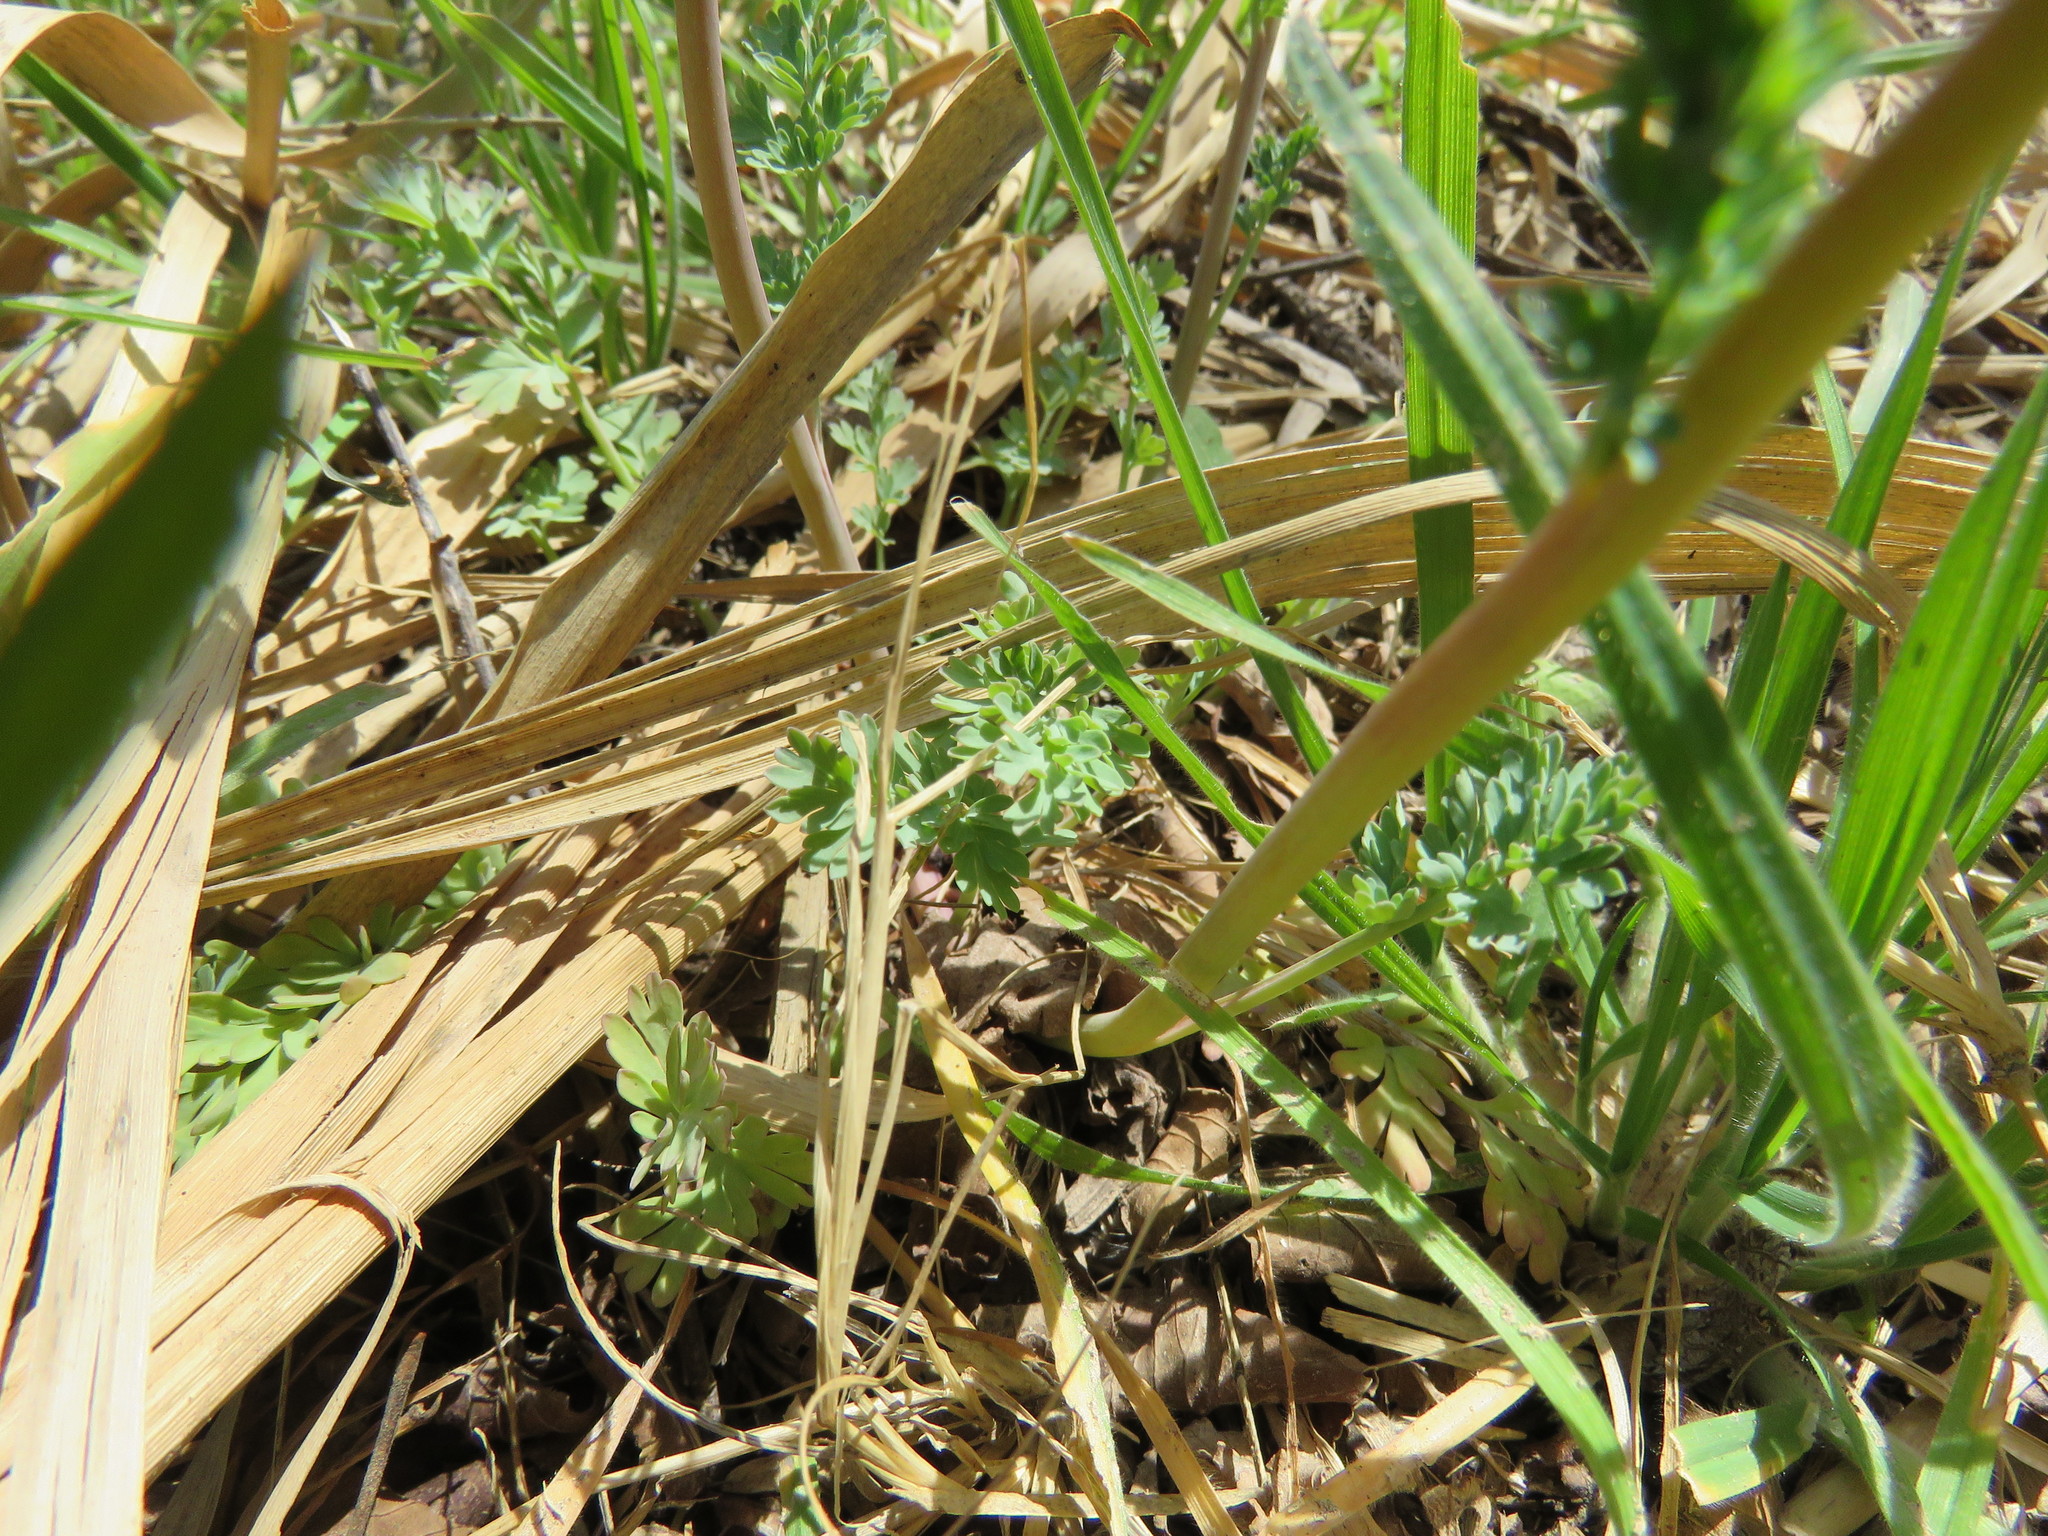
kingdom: Plantae
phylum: Tracheophyta
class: Magnoliopsida
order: Ranunculales
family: Papaveraceae
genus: Corydalis
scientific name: Corydalis aurea
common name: Golden corydalis
